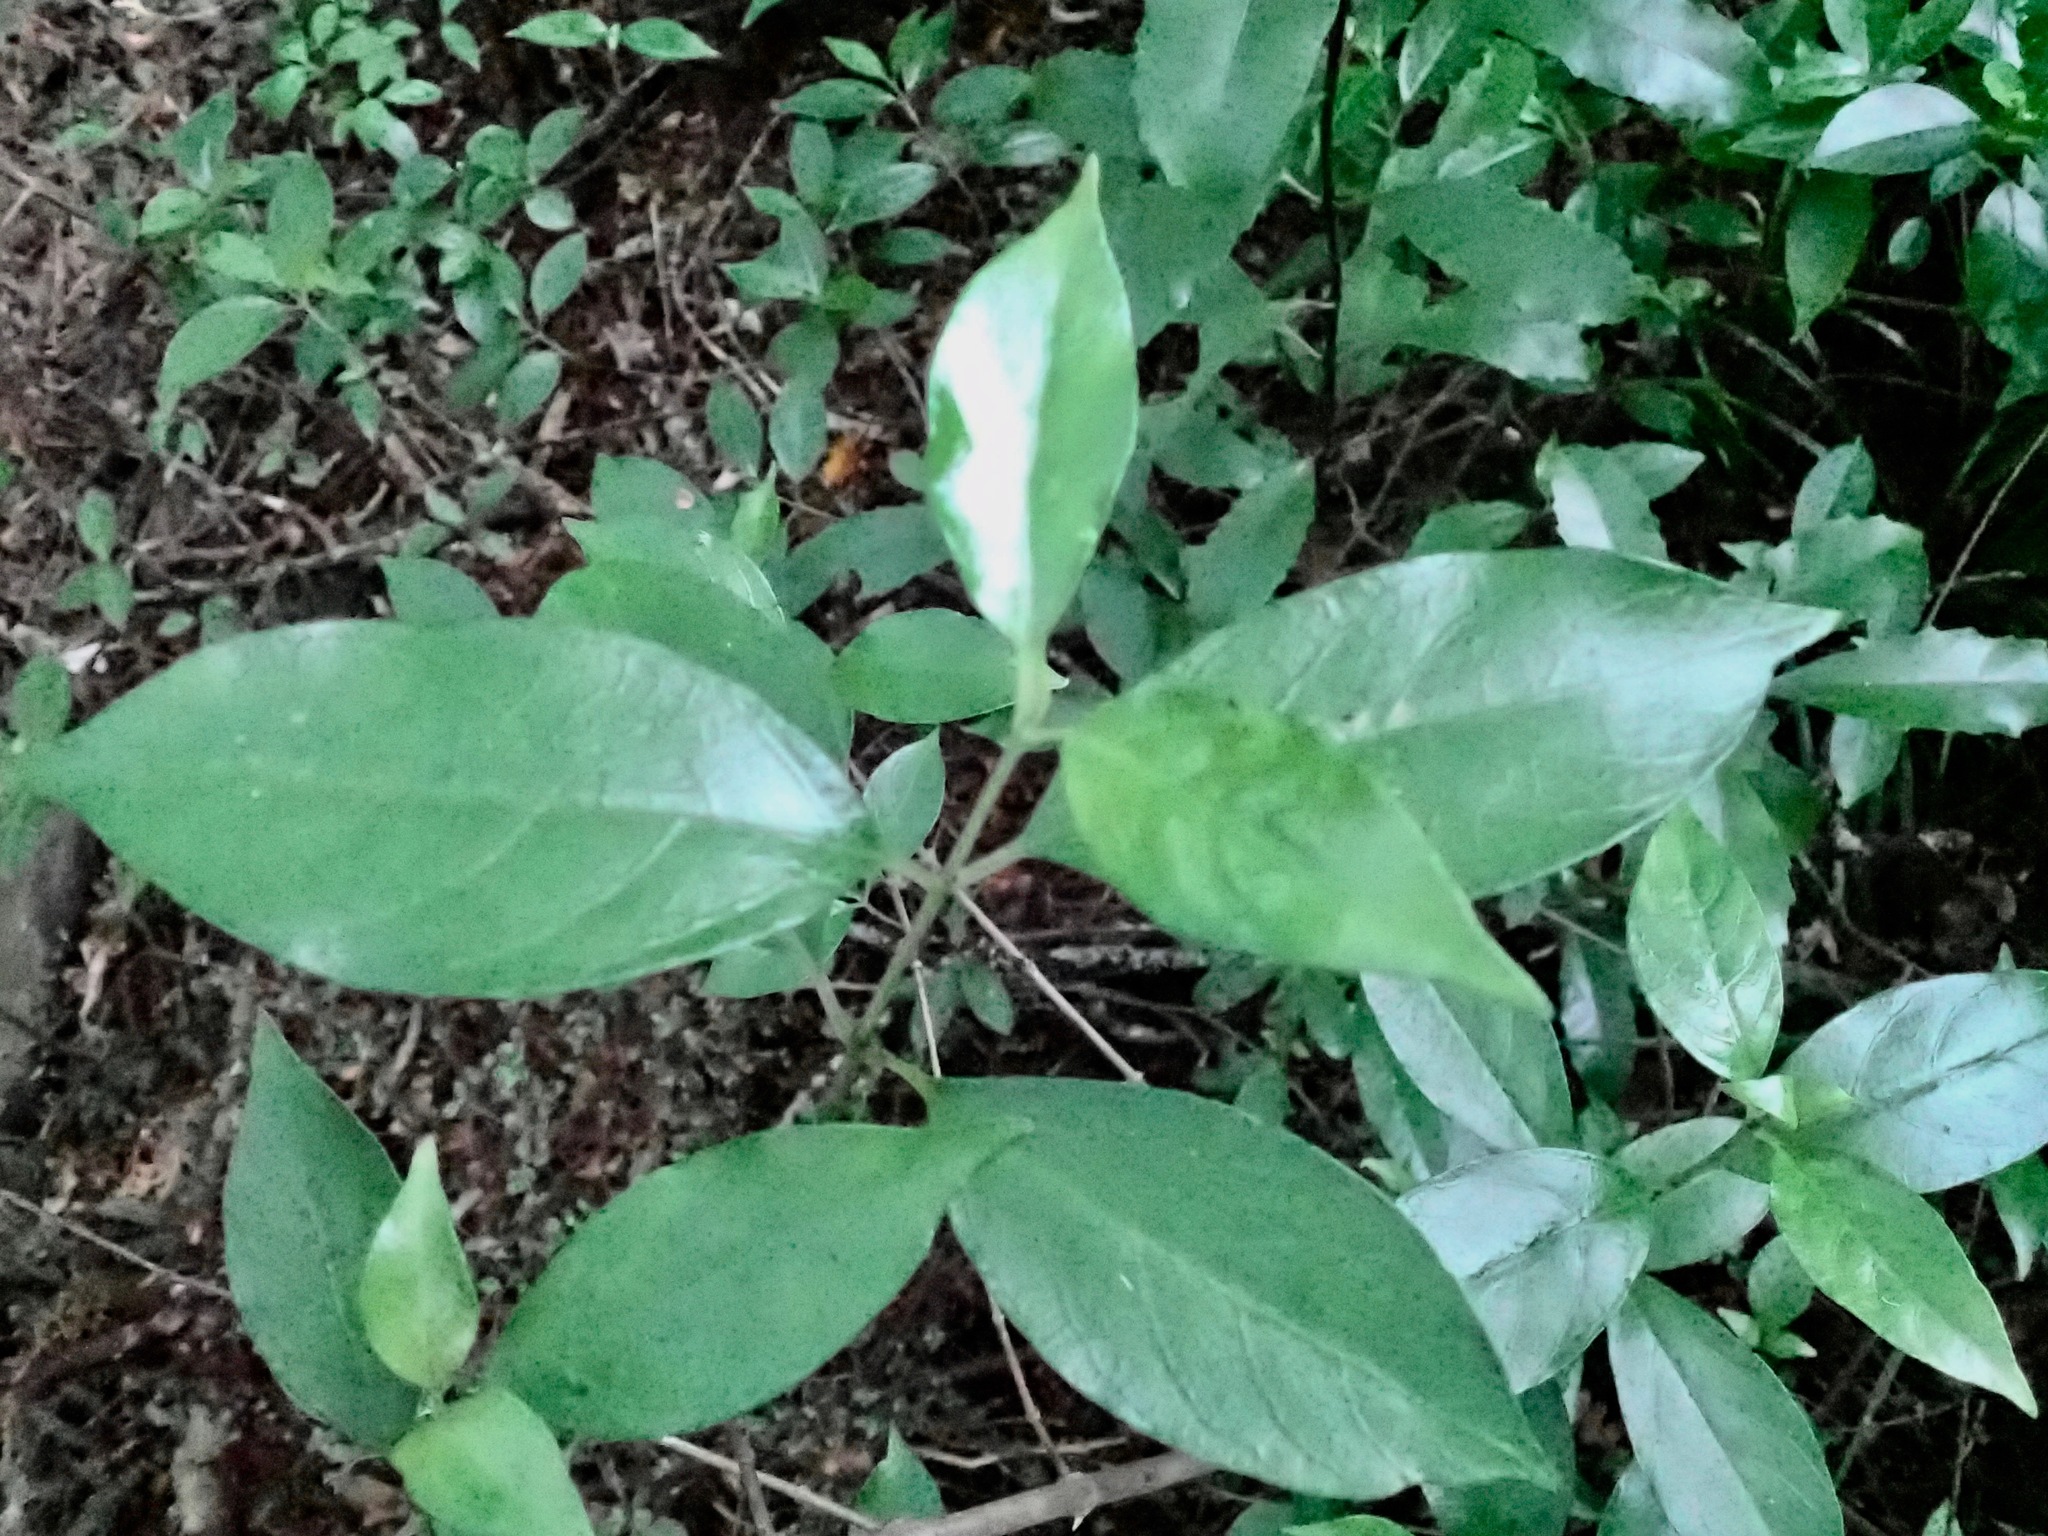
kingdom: Plantae
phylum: Tracheophyta
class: Magnoliopsida
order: Gentianales
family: Loganiaceae
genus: Geniostoma
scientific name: Geniostoma ligustrifolium
